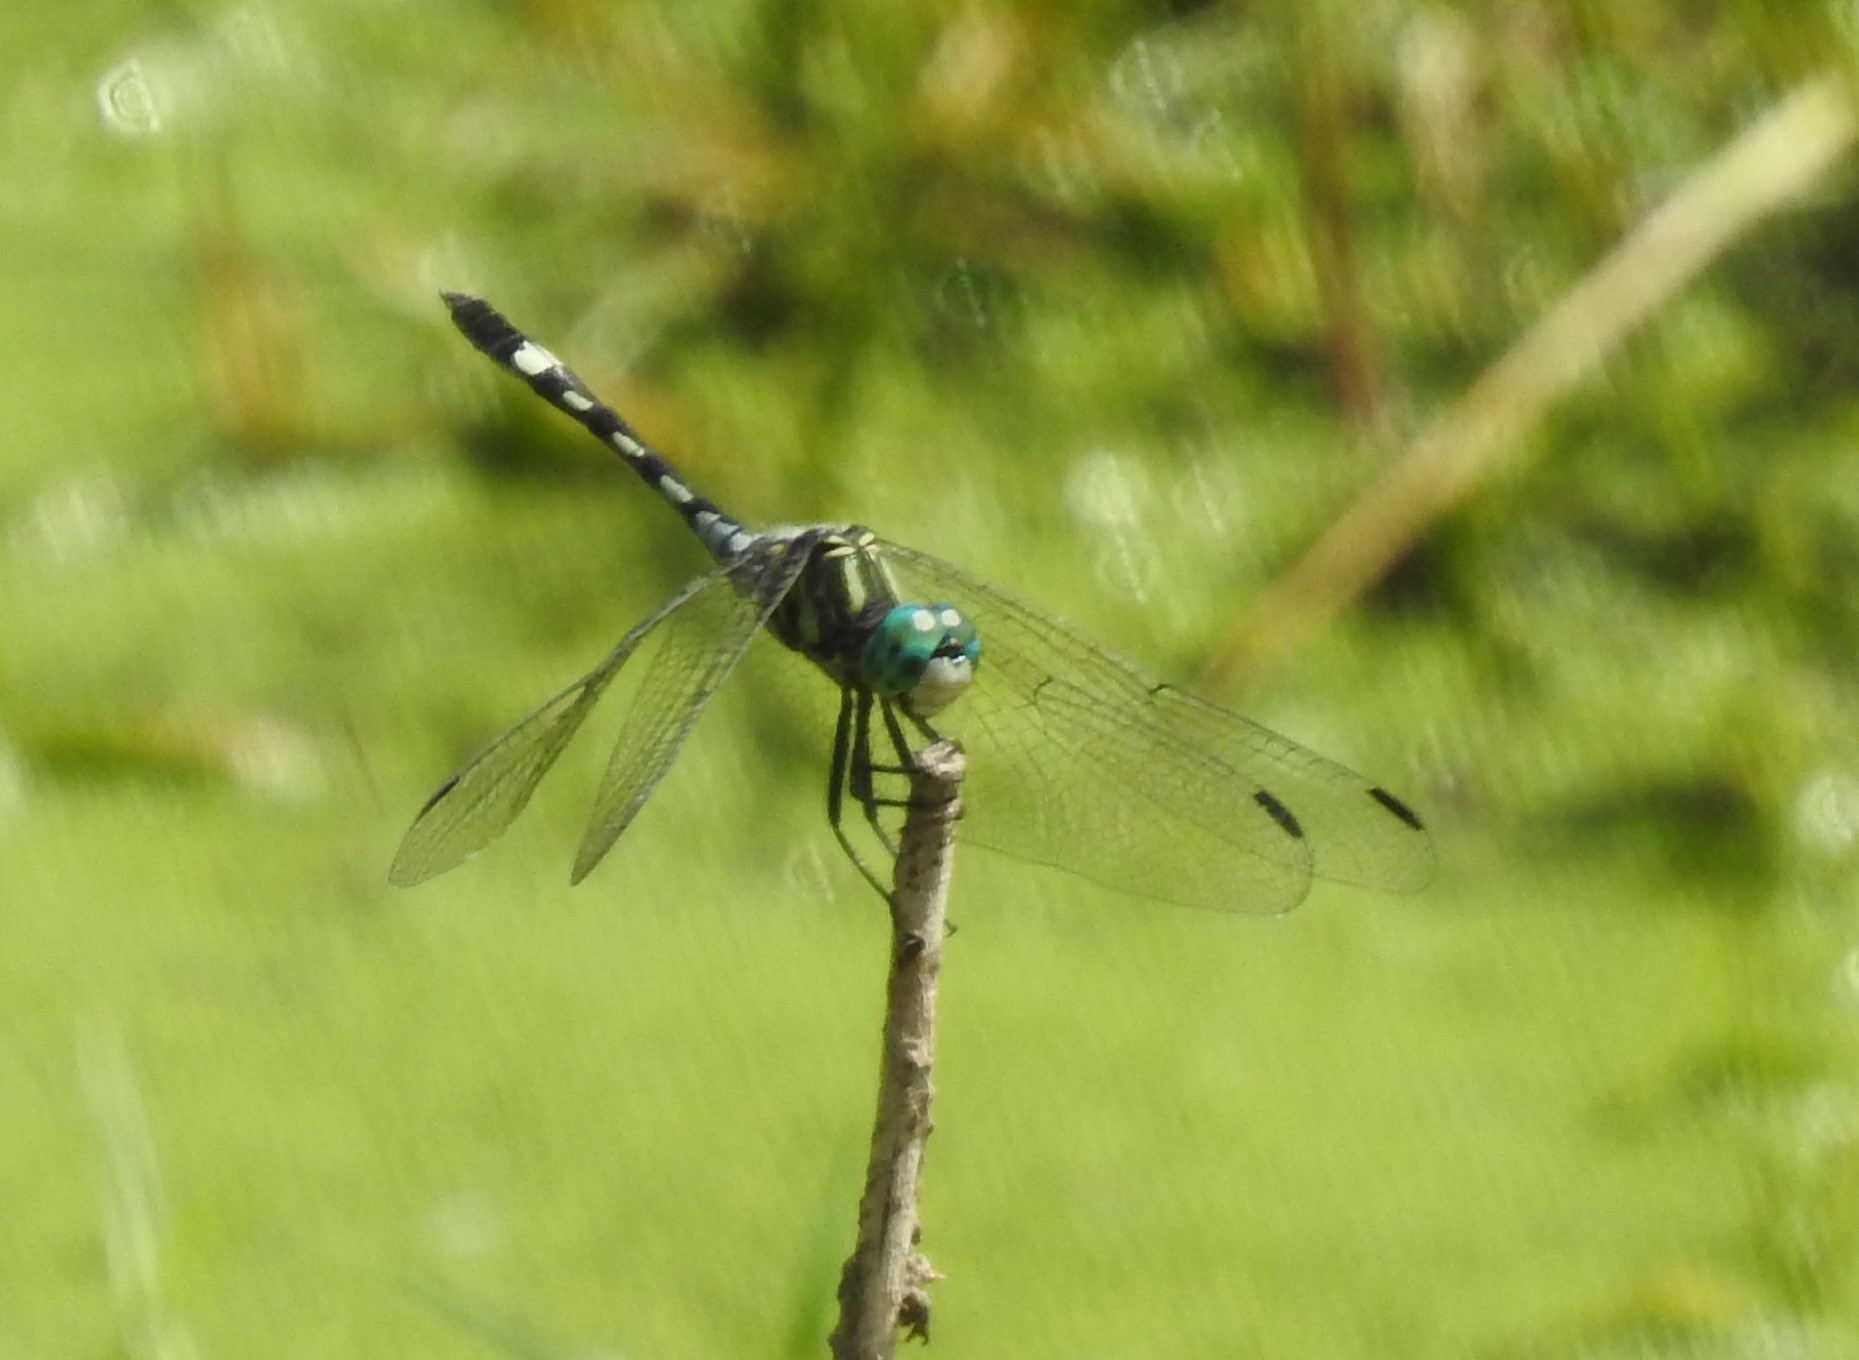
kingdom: Animalia
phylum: Arthropoda
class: Insecta
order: Odonata
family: Libellulidae
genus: Micrathyria
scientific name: Micrathyria hagenii
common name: Thornbush dasher
